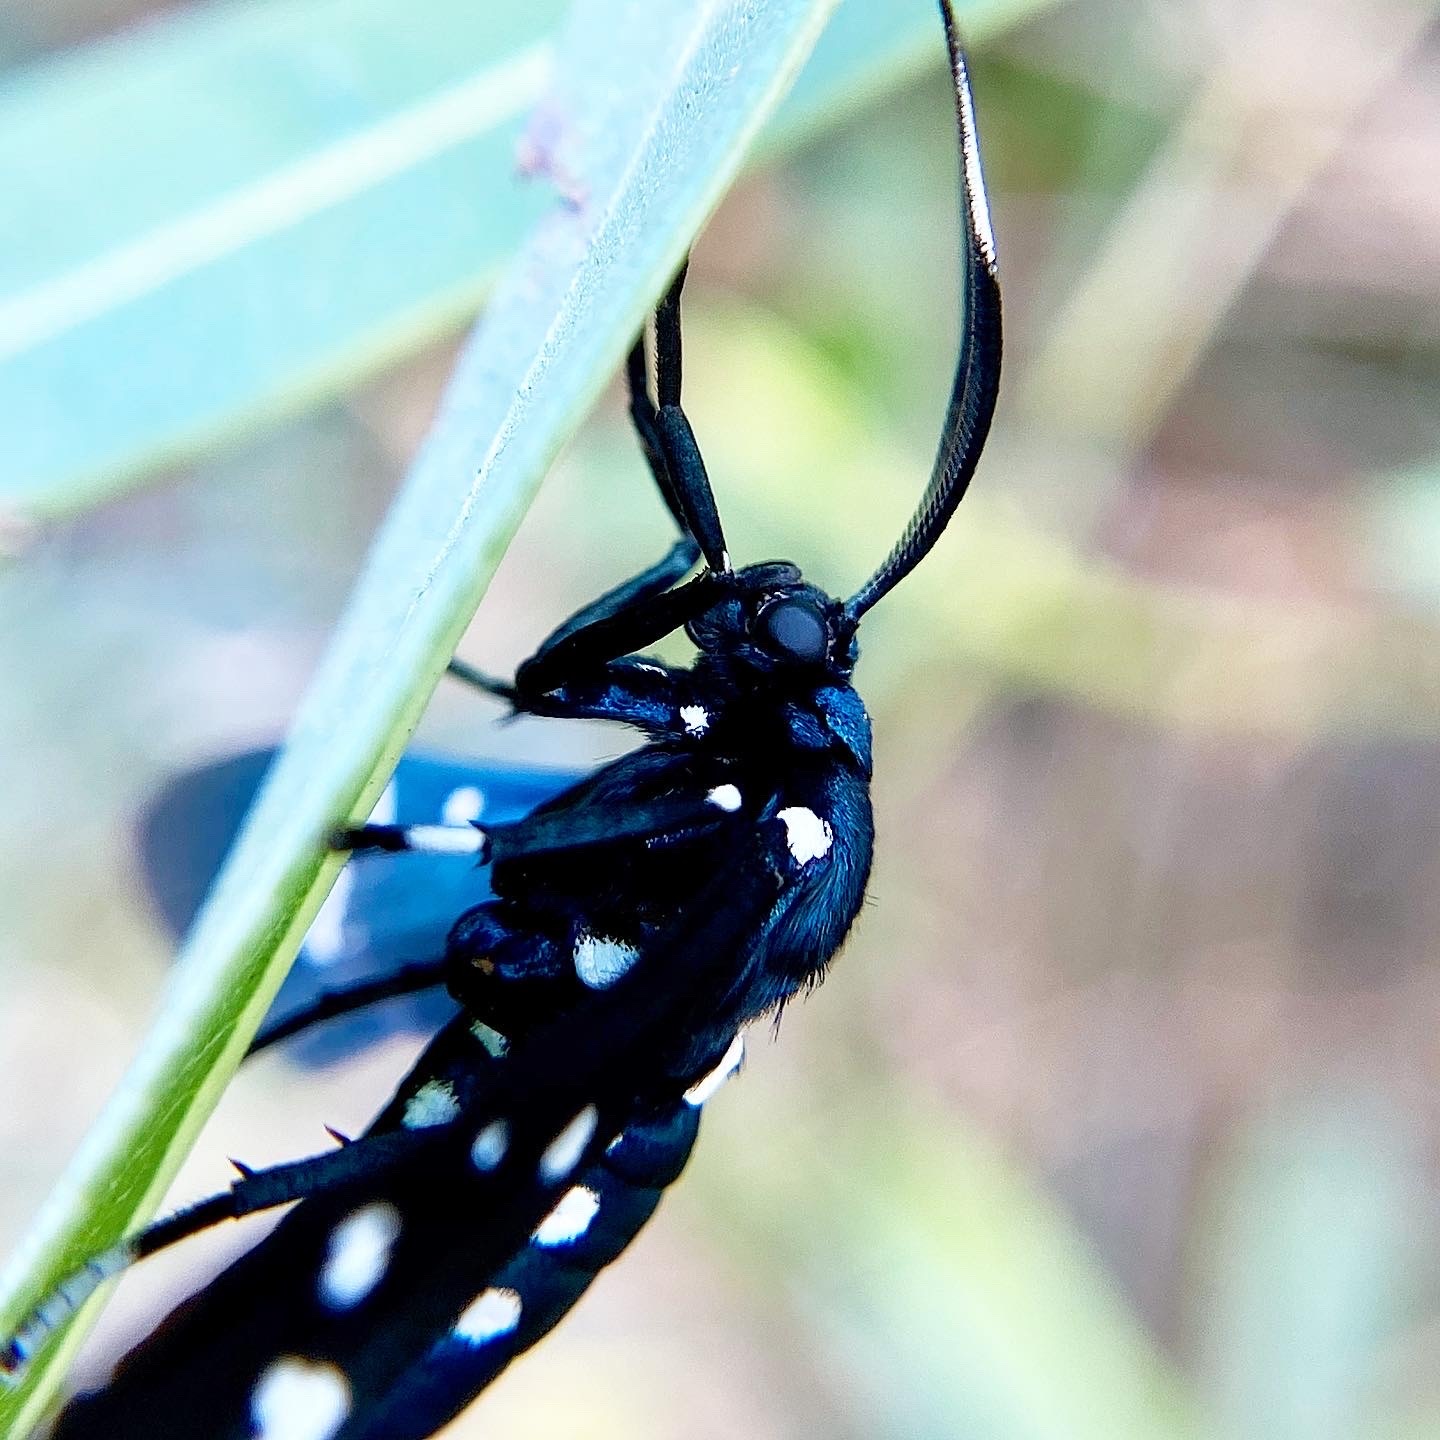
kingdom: Animalia
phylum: Arthropoda
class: Insecta
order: Lepidoptera
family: Erebidae
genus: Syntomeida
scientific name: Syntomeida epilais
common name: Polka-dot wasp moth
